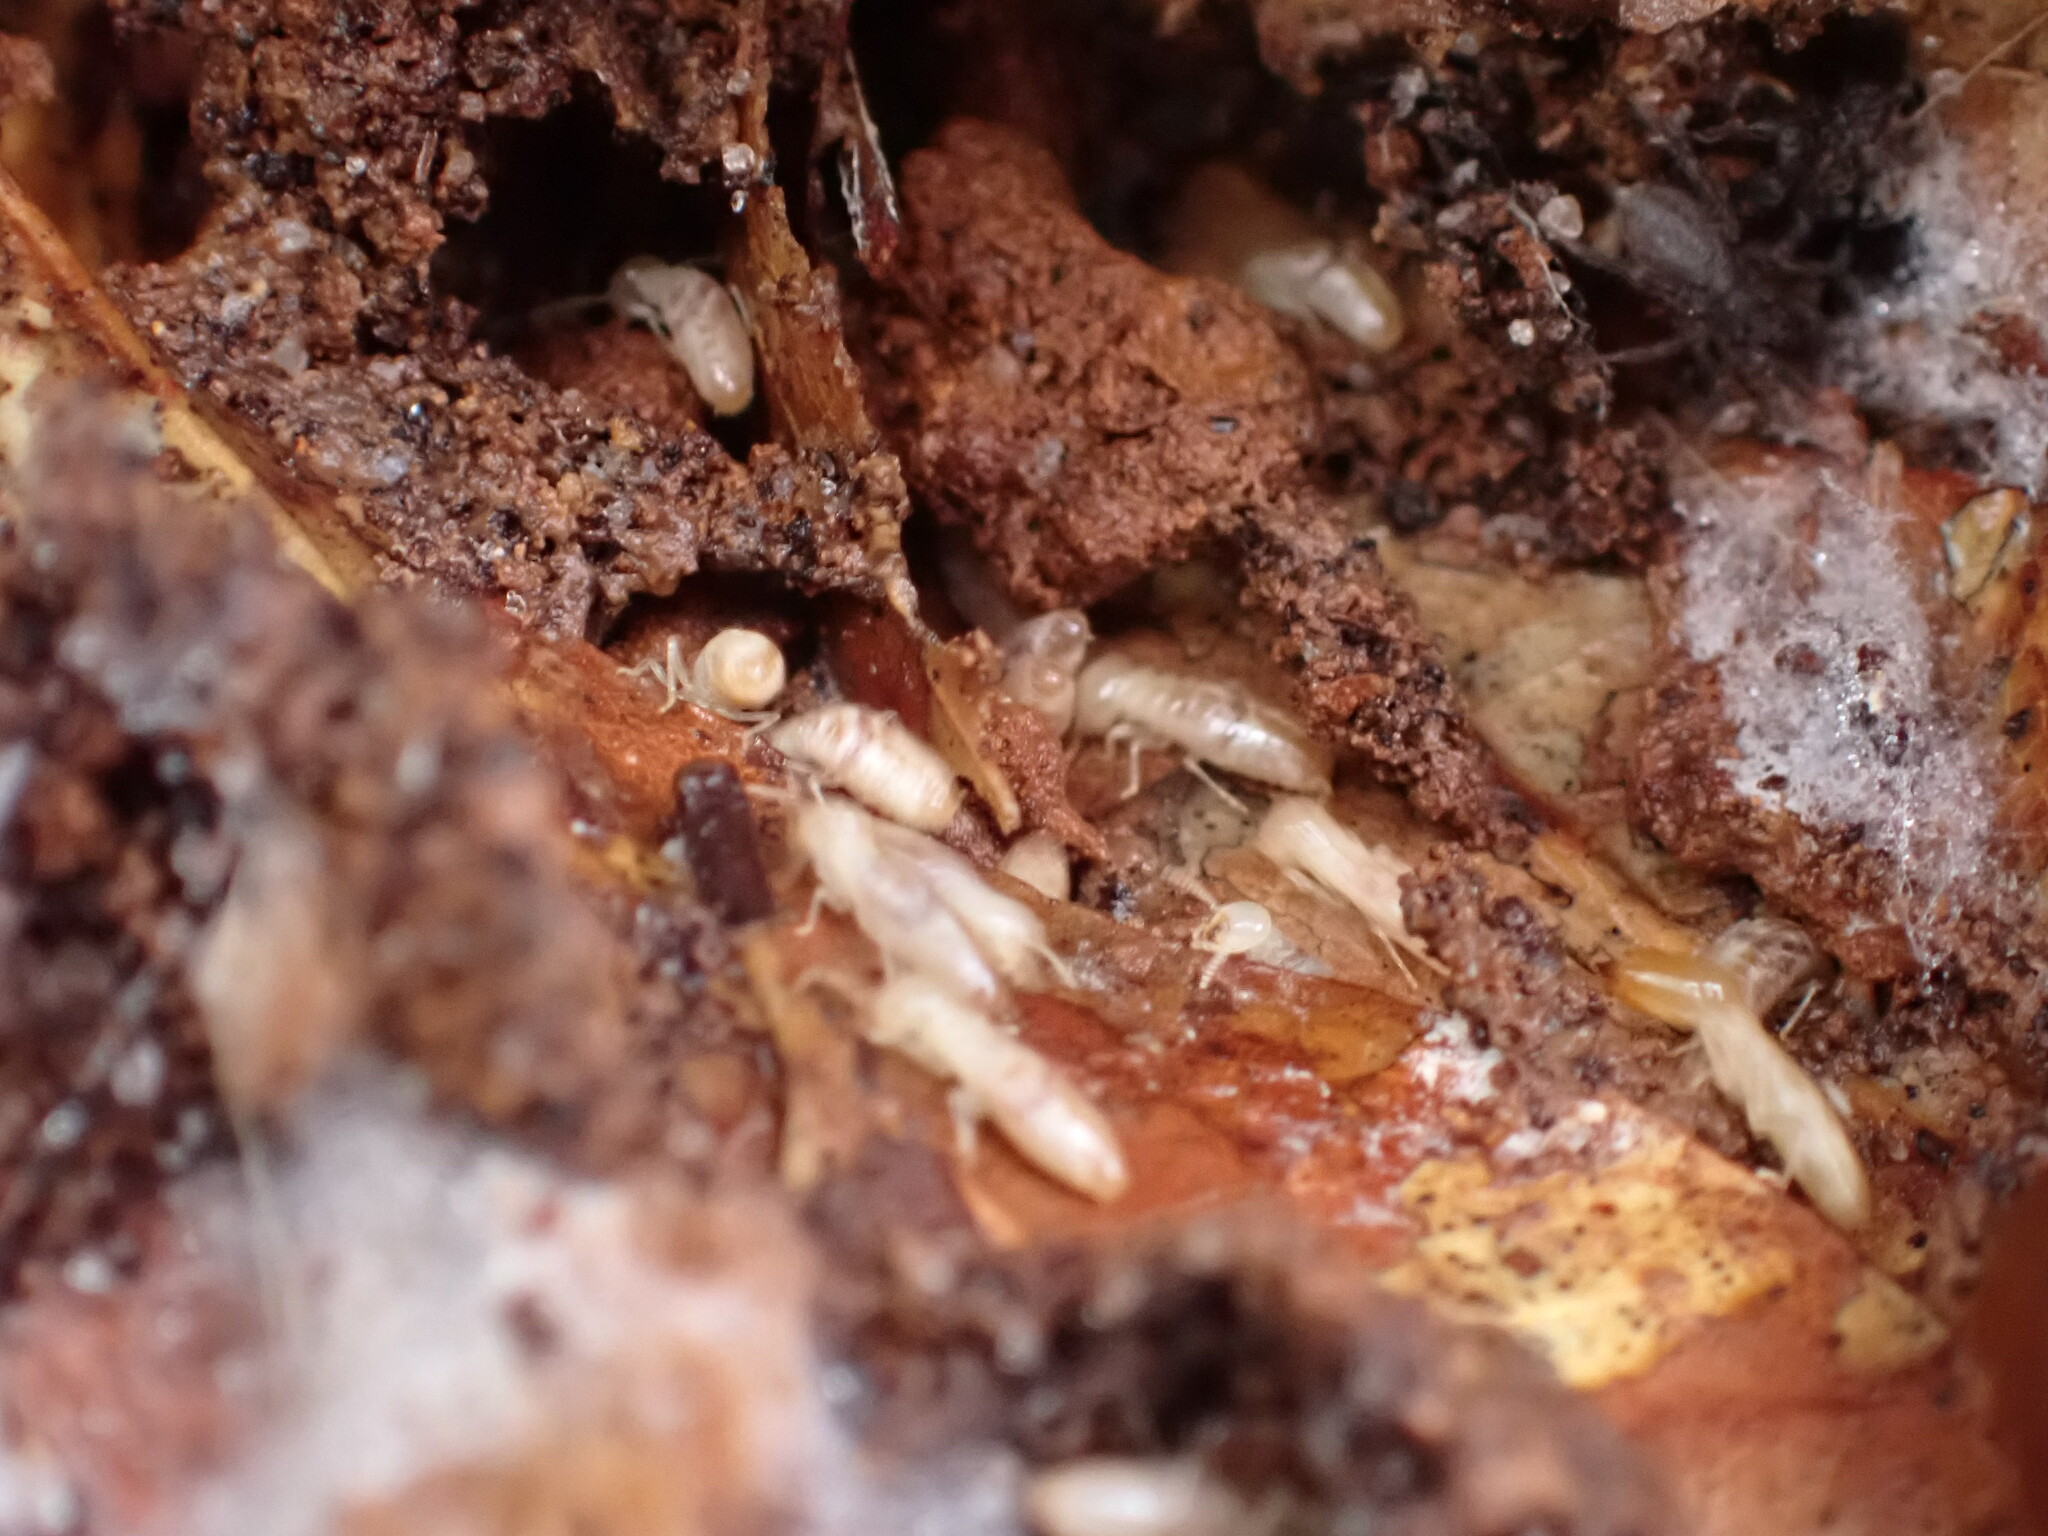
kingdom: Animalia
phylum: Arthropoda
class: Insecta
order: Blattodea
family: Rhinotermitidae
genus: Reticulitermes
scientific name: Reticulitermes flavipes
